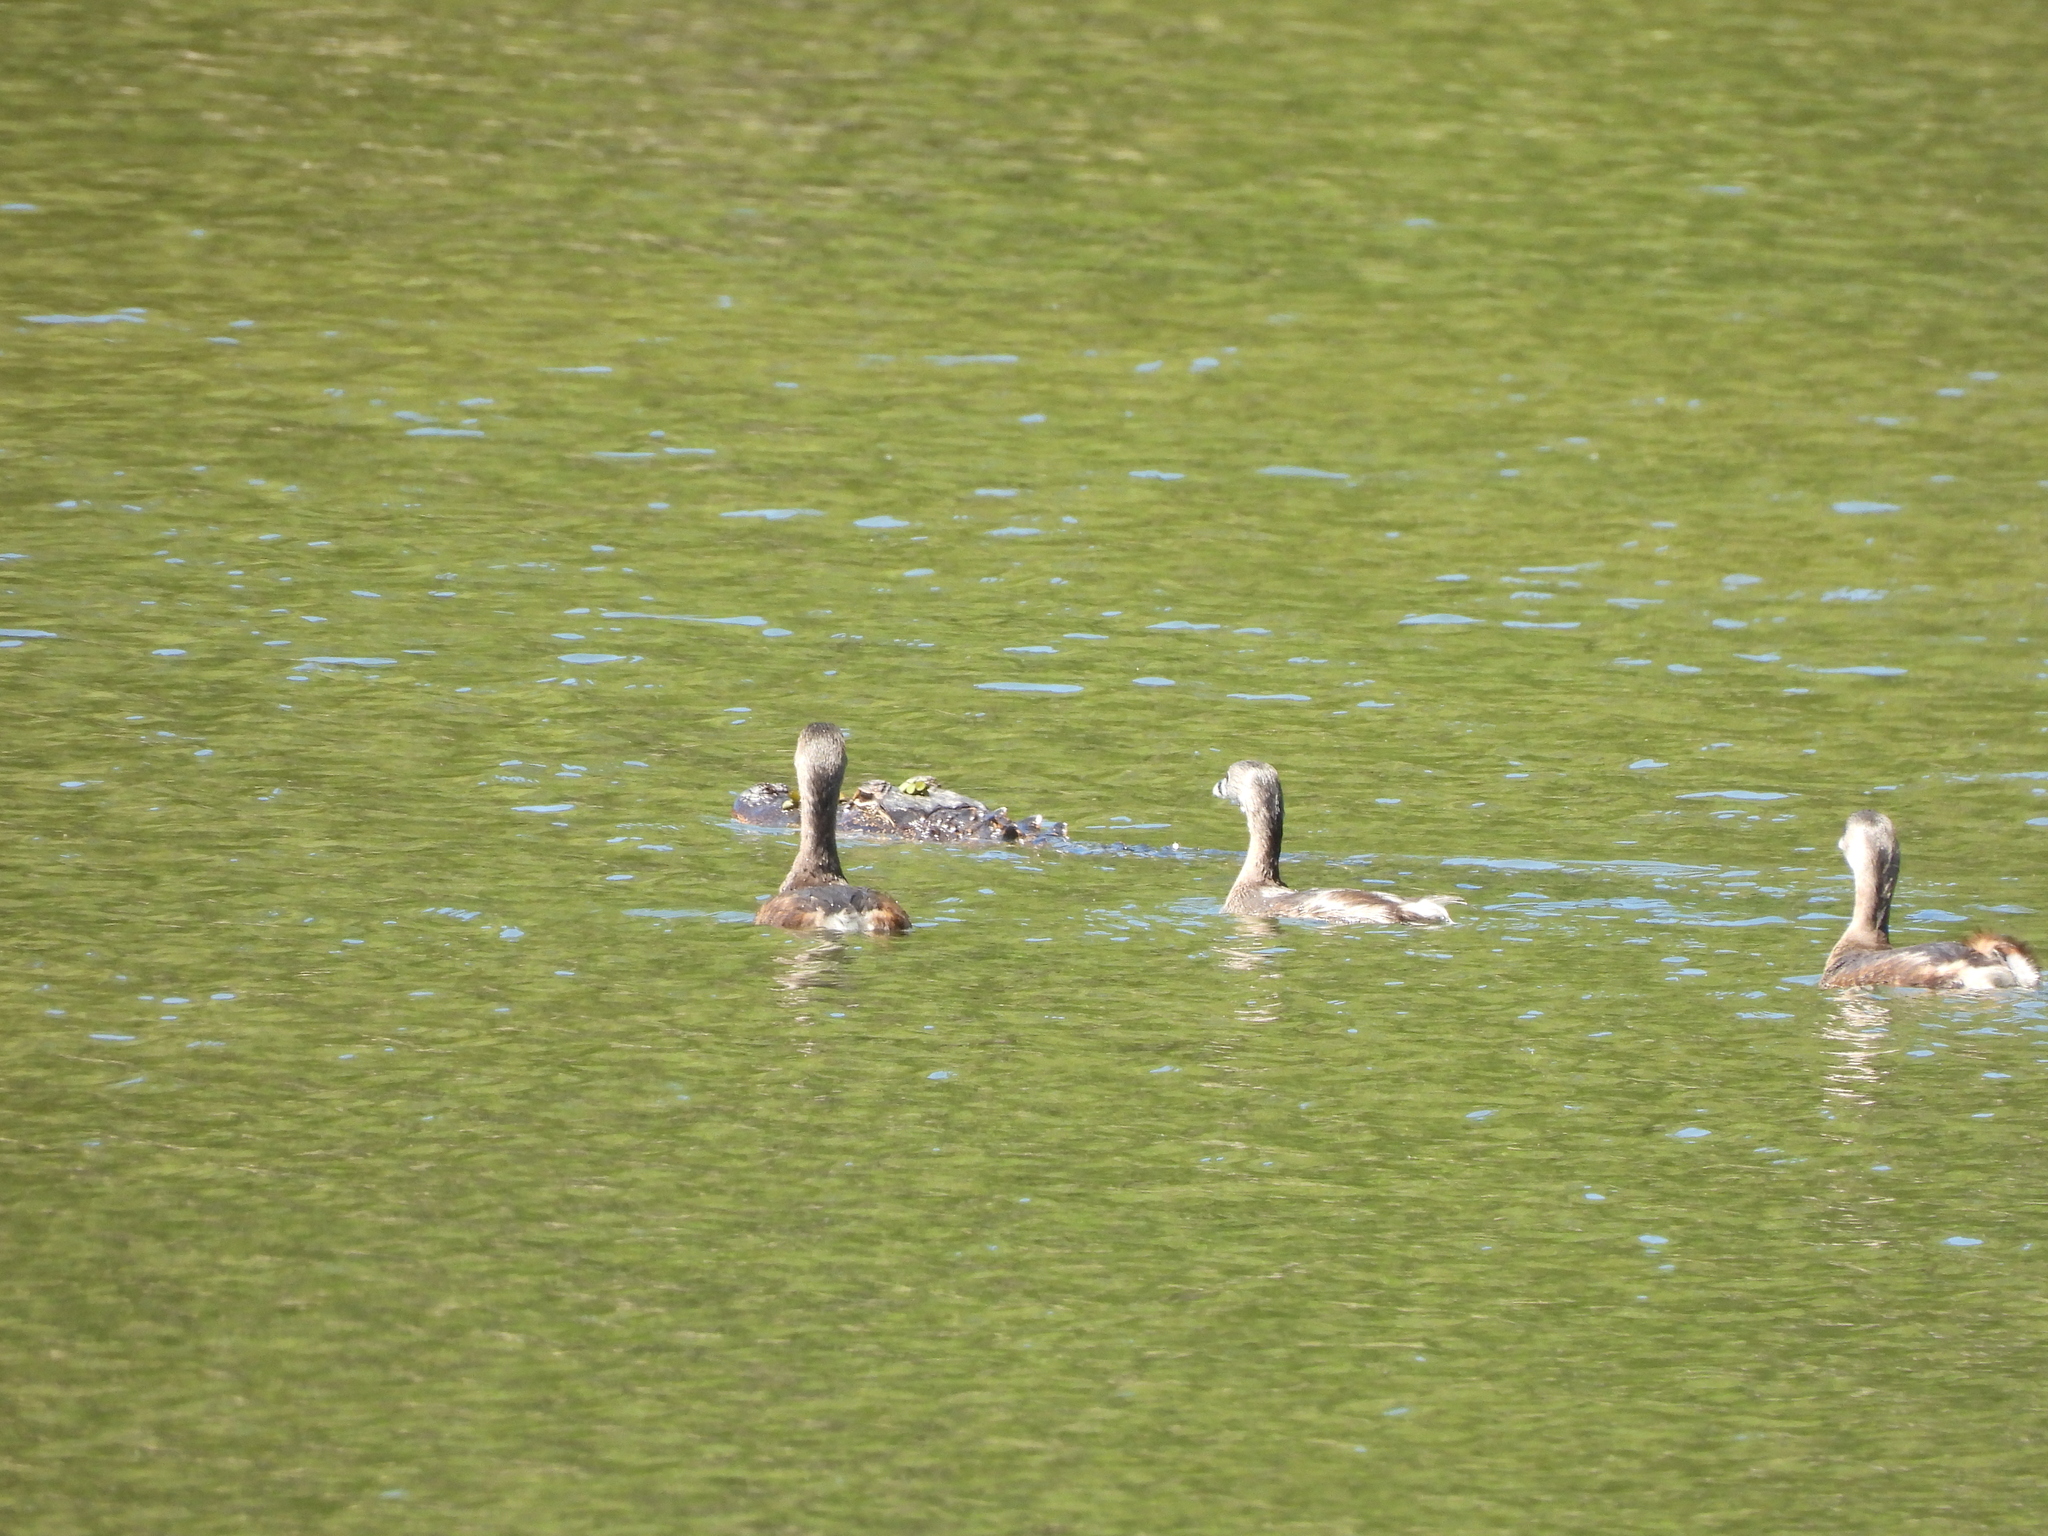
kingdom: Animalia
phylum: Chordata
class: Aves
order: Podicipediformes
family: Podicipedidae
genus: Podilymbus
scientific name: Podilymbus podiceps
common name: Pied-billed grebe
